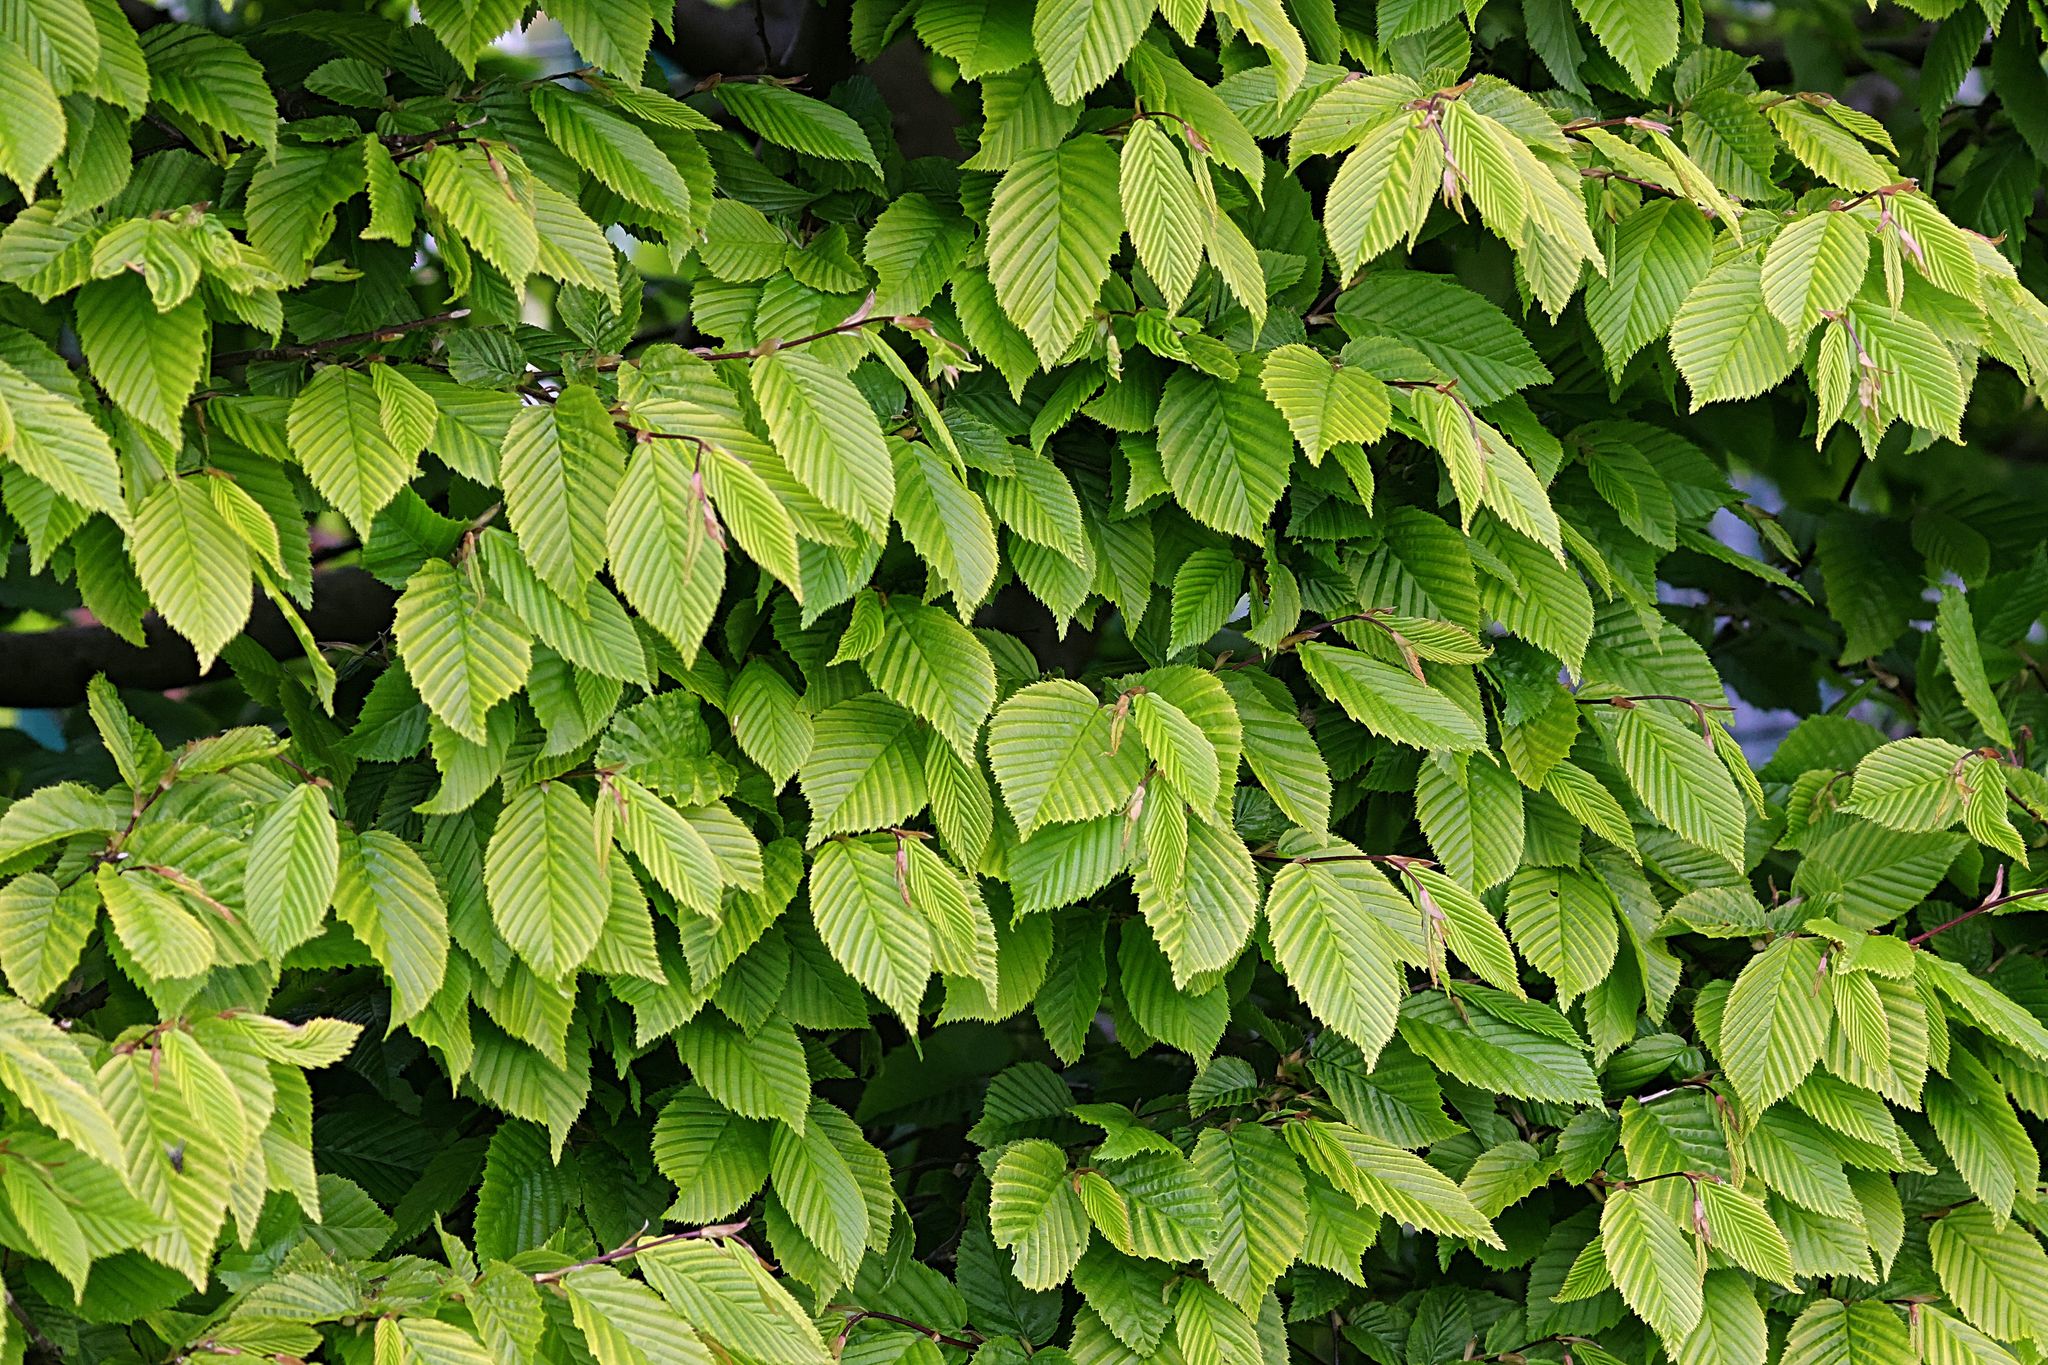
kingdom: Plantae
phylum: Tracheophyta
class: Magnoliopsida
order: Fagales
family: Betulaceae
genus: Carpinus
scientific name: Carpinus betulus
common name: Hornbeam
